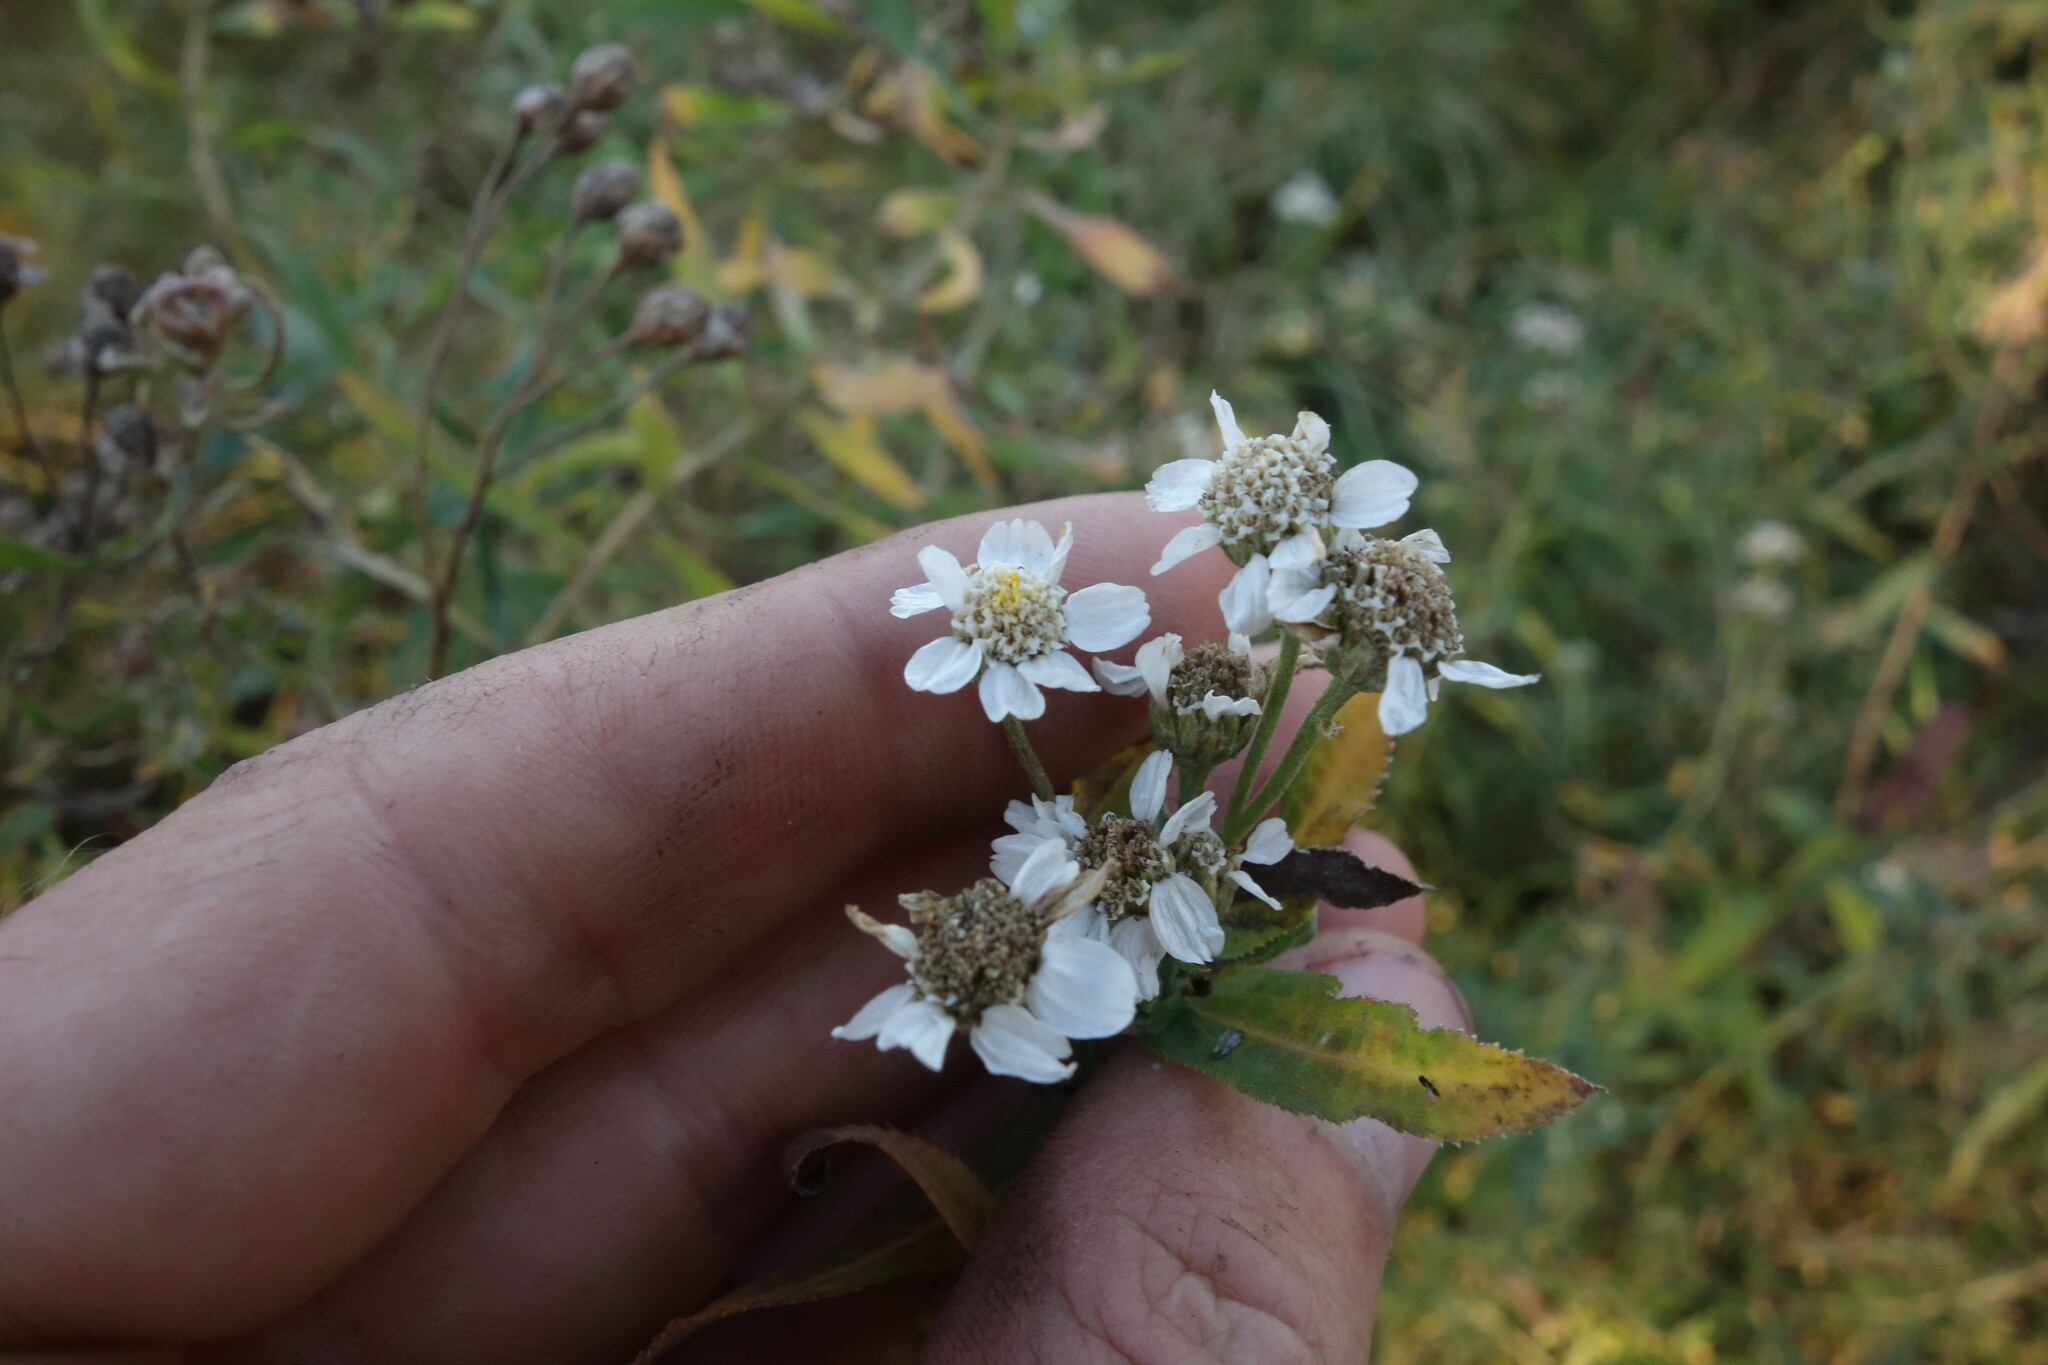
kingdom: Plantae
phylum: Tracheophyta
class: Magnoliopsida
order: Asterales
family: Asteraceae
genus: Achillea
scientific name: Achillea salicifolia
